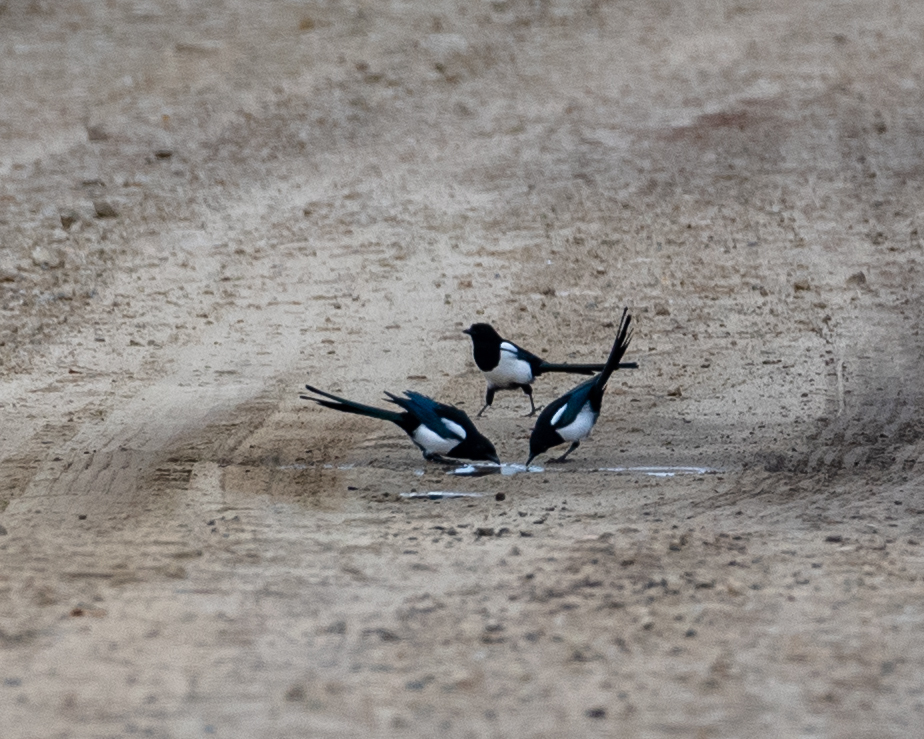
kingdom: Animalia
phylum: Chordata
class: Aves
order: Passeriformes
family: Corvidae
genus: Pica
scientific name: Pica pica
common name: Eurasian magpie
